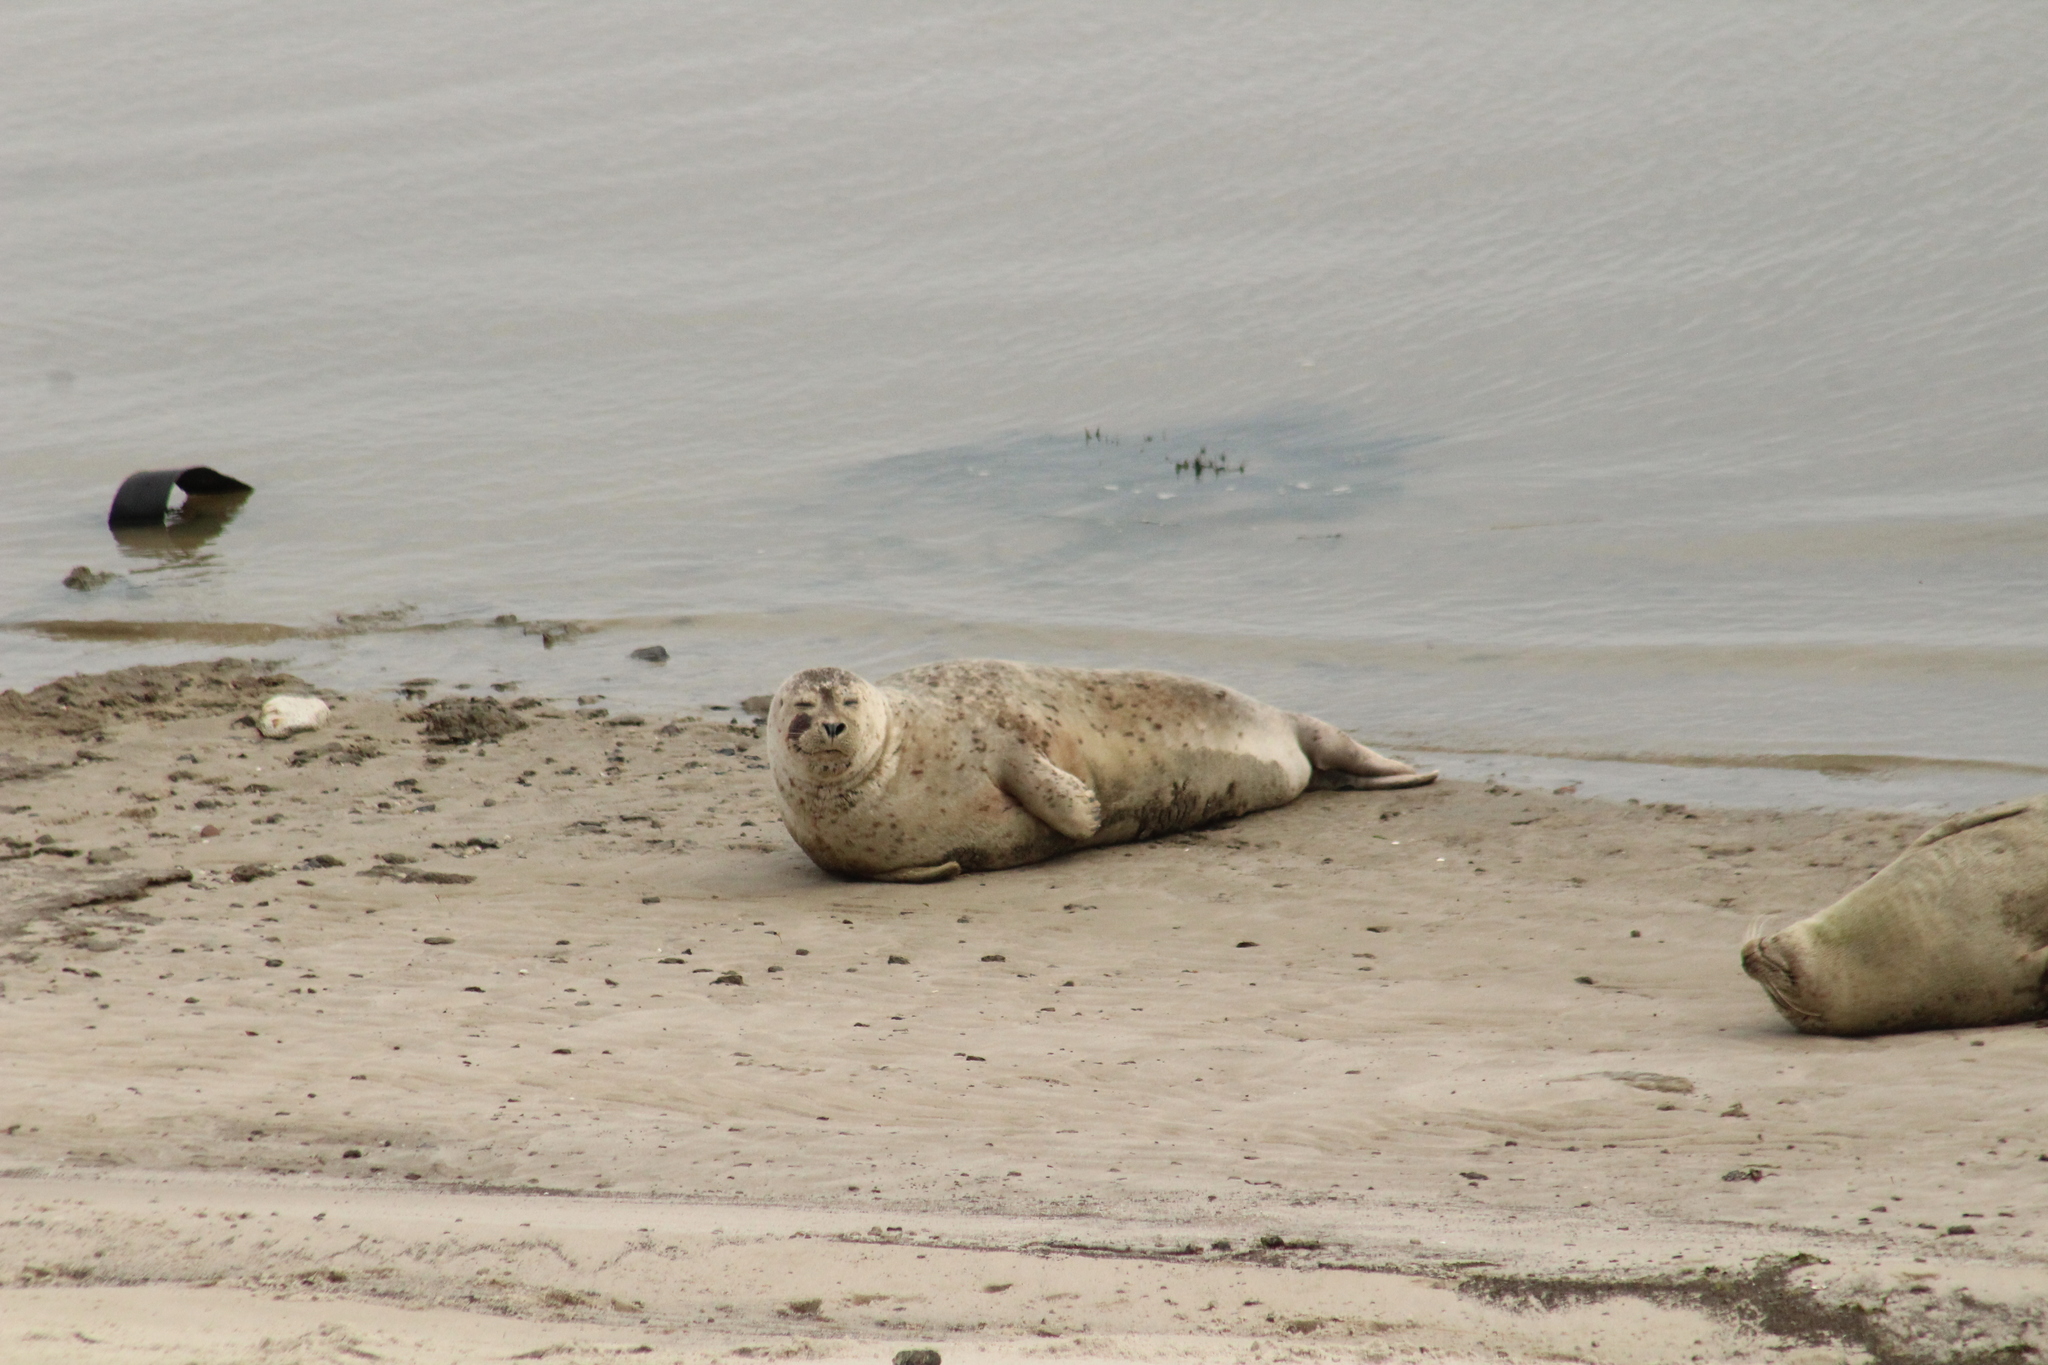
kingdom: Animalia
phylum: Chordata
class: Mammalia
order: Carnivora
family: Phocidae
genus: Phoca
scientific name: Phoca vitulina
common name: Harbor seal
